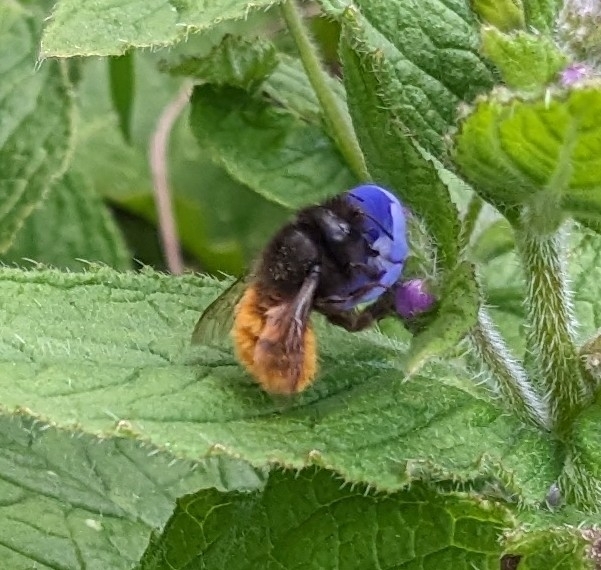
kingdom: Animalia
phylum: Arthropoda
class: Insecta
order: Hymenoptera
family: Megachilidae
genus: Osmia
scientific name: Osmia cornuta
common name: Mason bee
